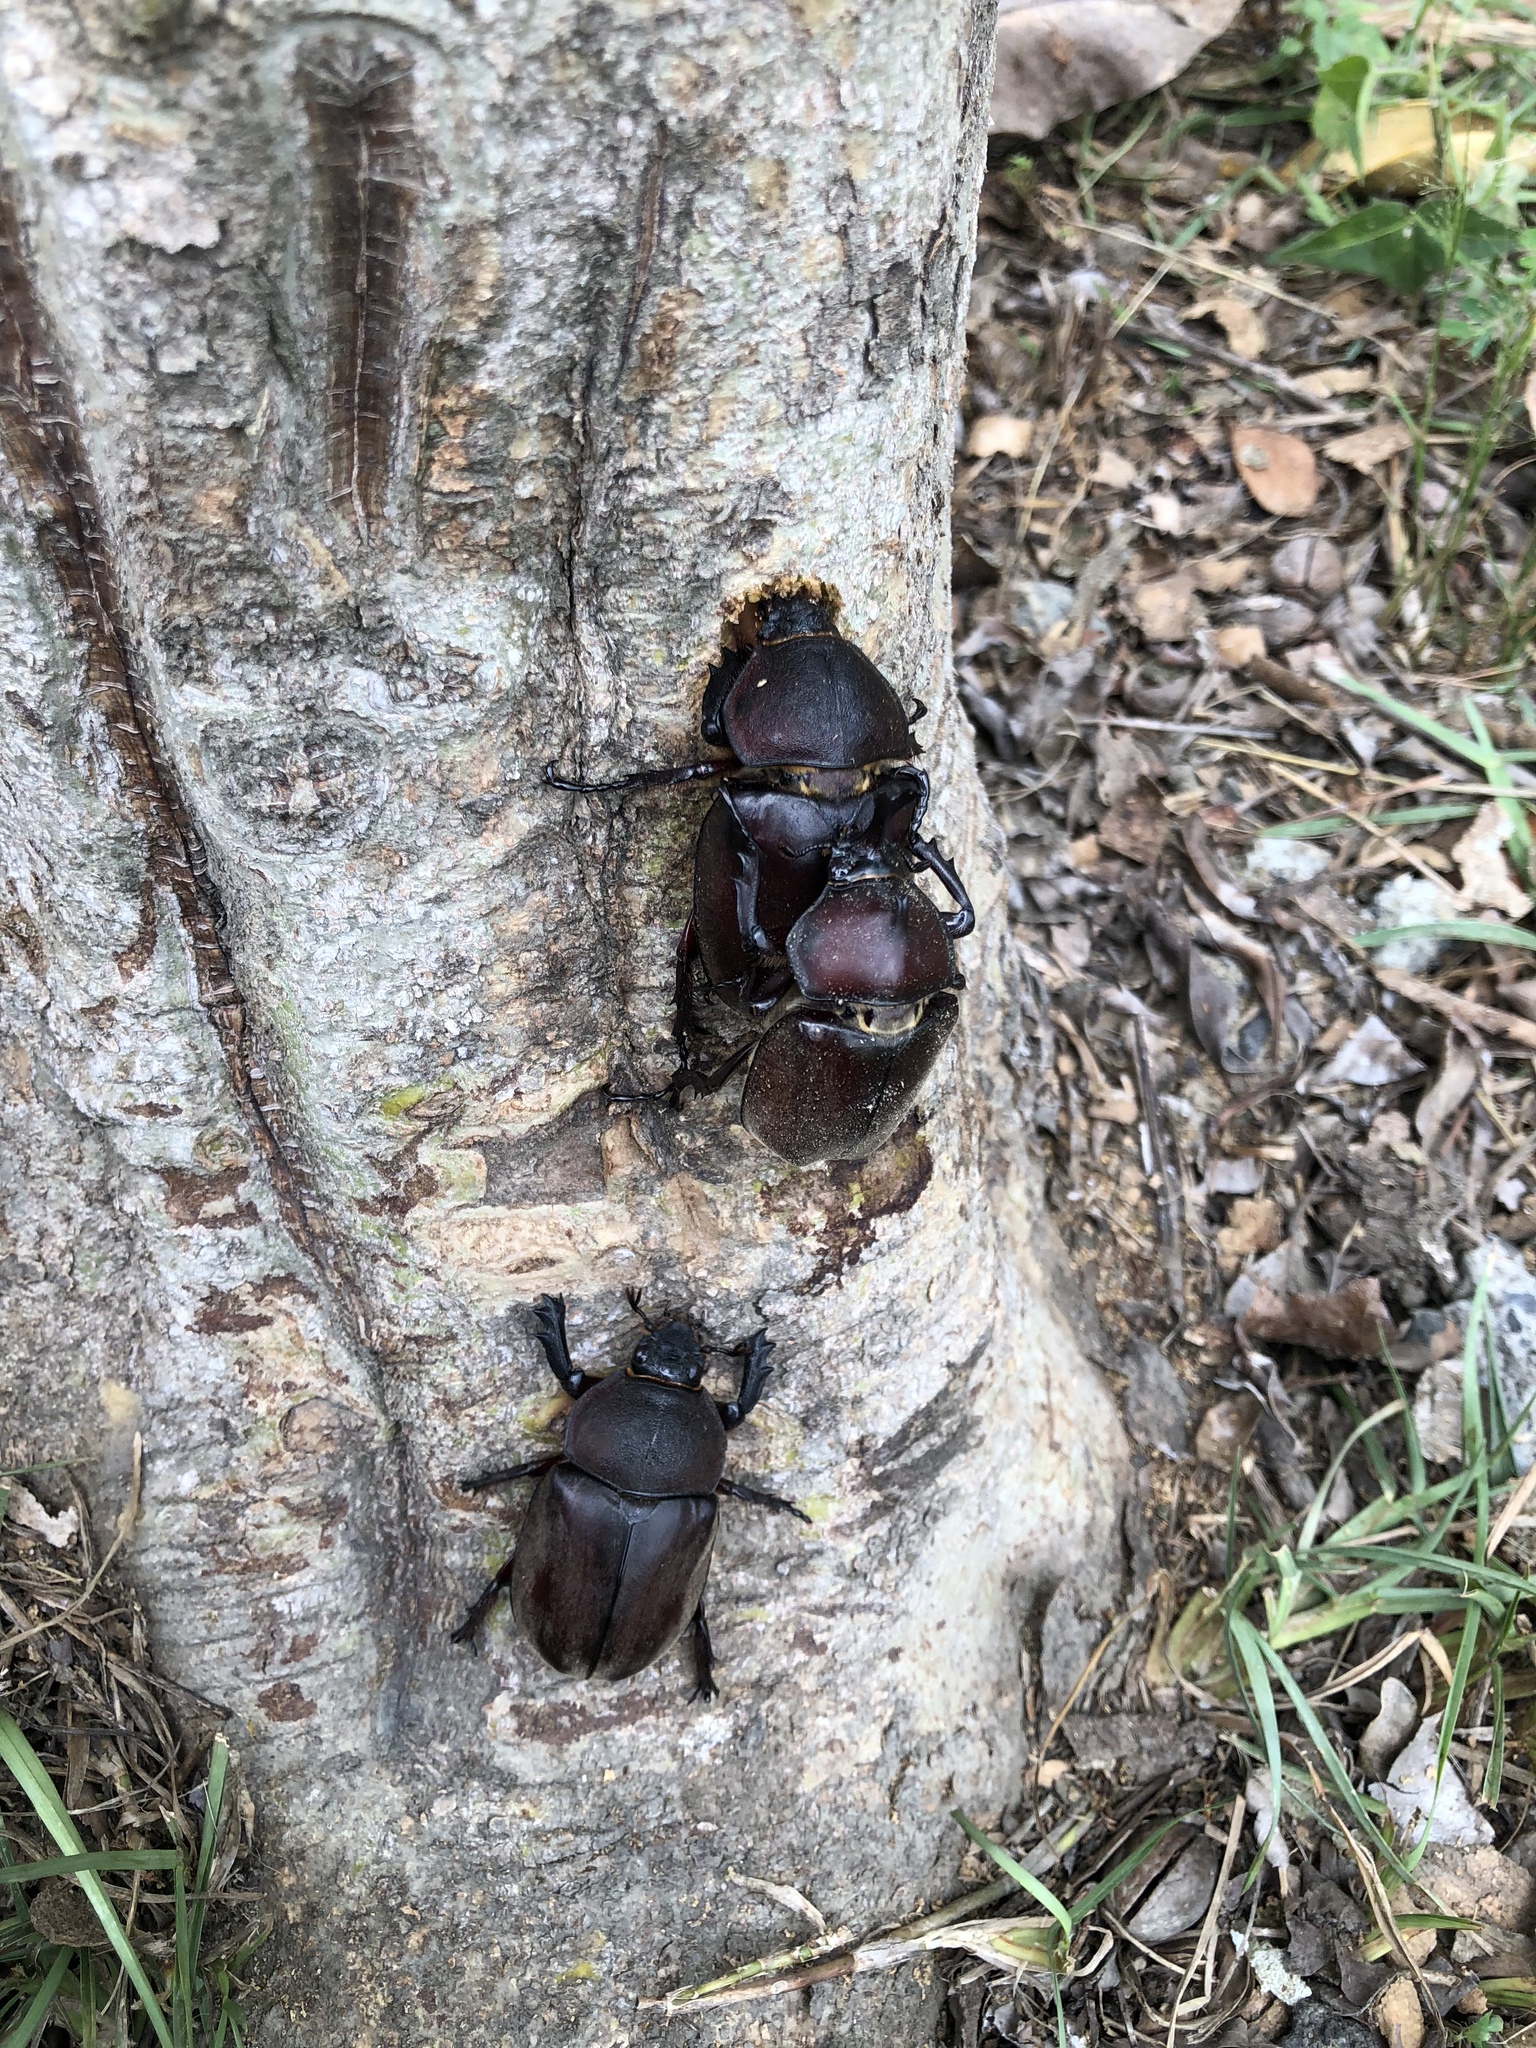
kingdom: Animalia
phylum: Arthropoda
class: Insecta
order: Coleoptera
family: Scarabaeidae
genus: Trypoxylus
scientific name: Trypoxylus dichotomus
